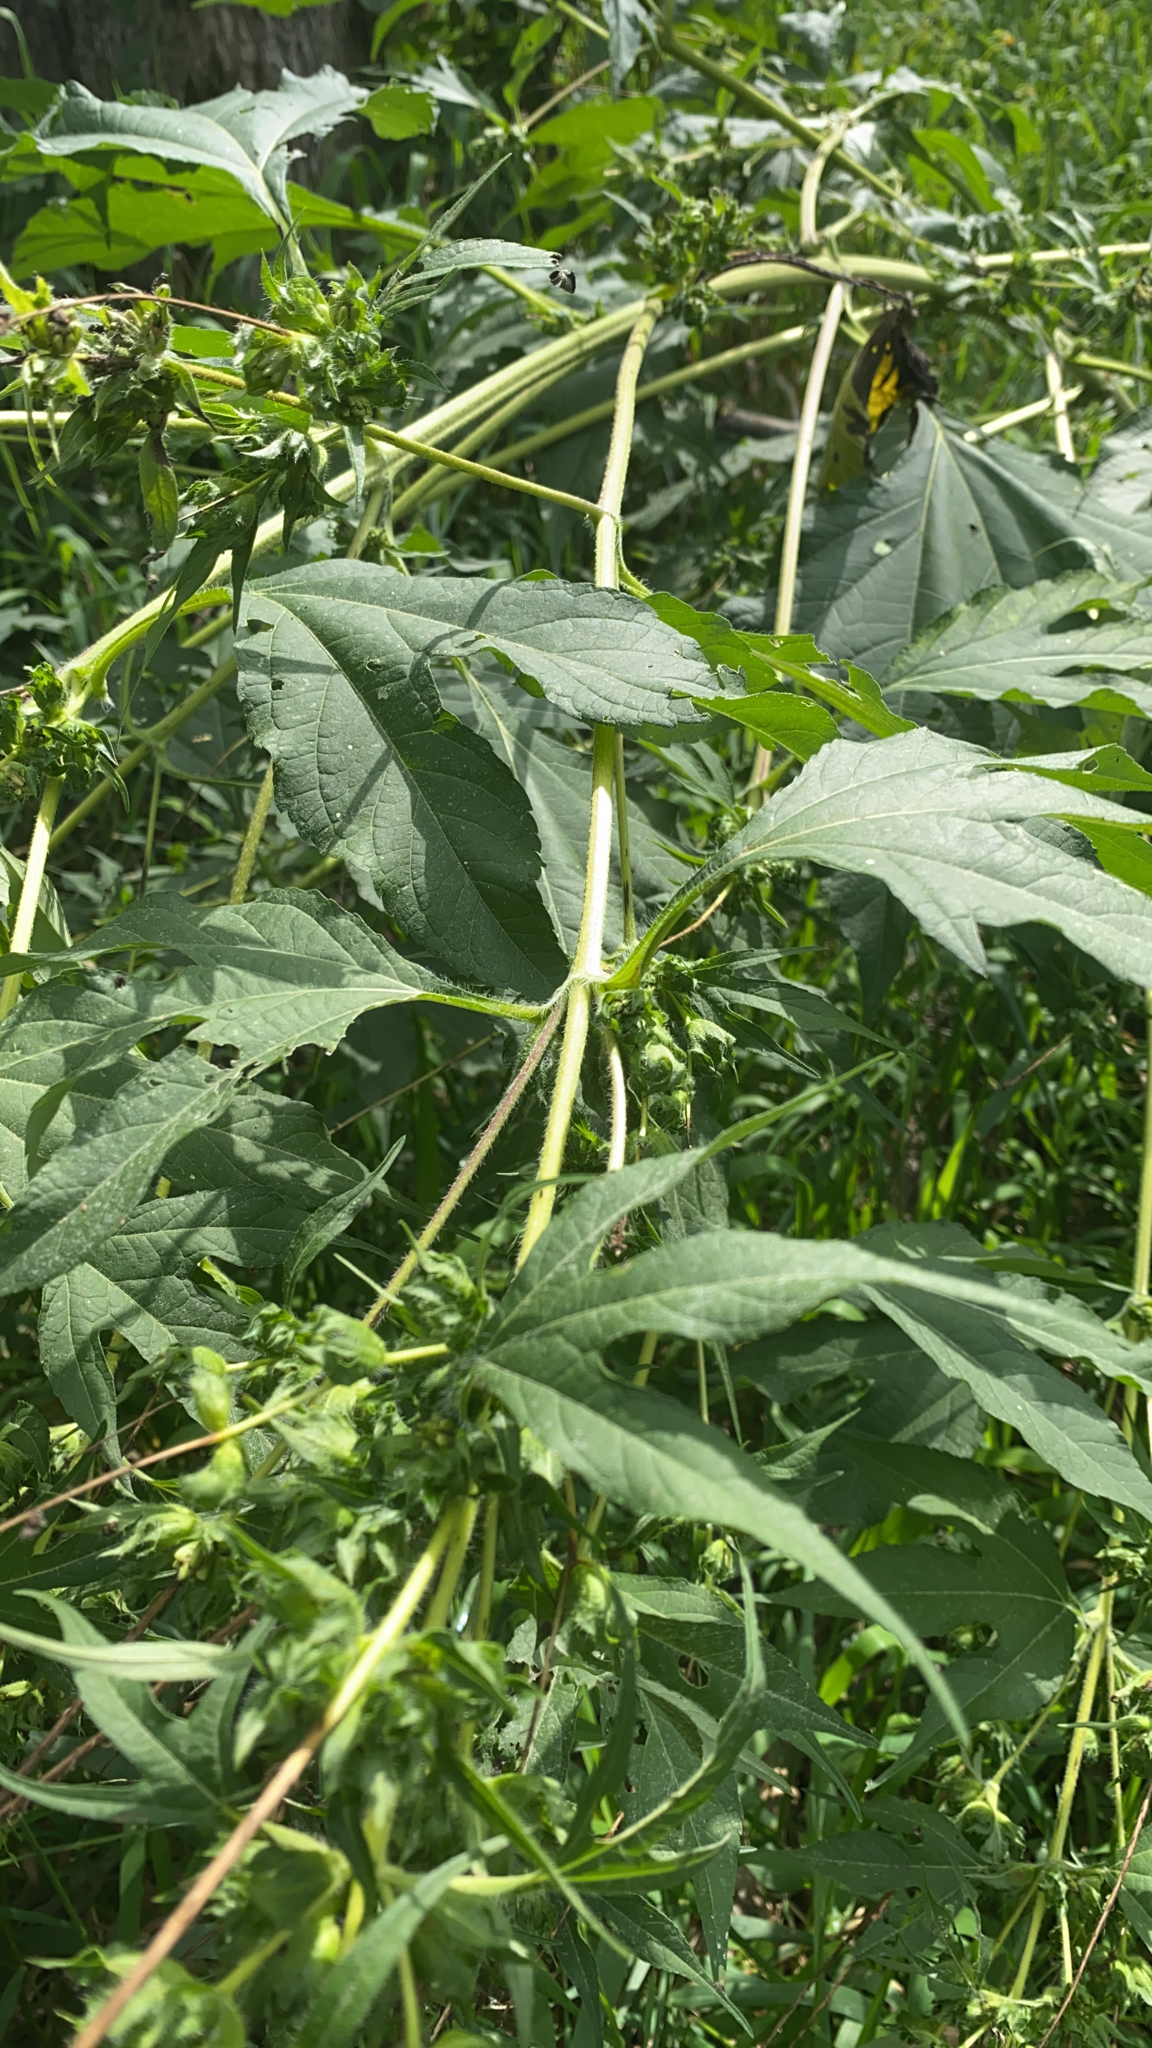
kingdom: Plantae
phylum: Tracheophyta
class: Magnoliopsida
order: Asterales
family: Asteraceae
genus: Ambrosia
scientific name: Ambrosia trifida
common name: Giant ragweed
